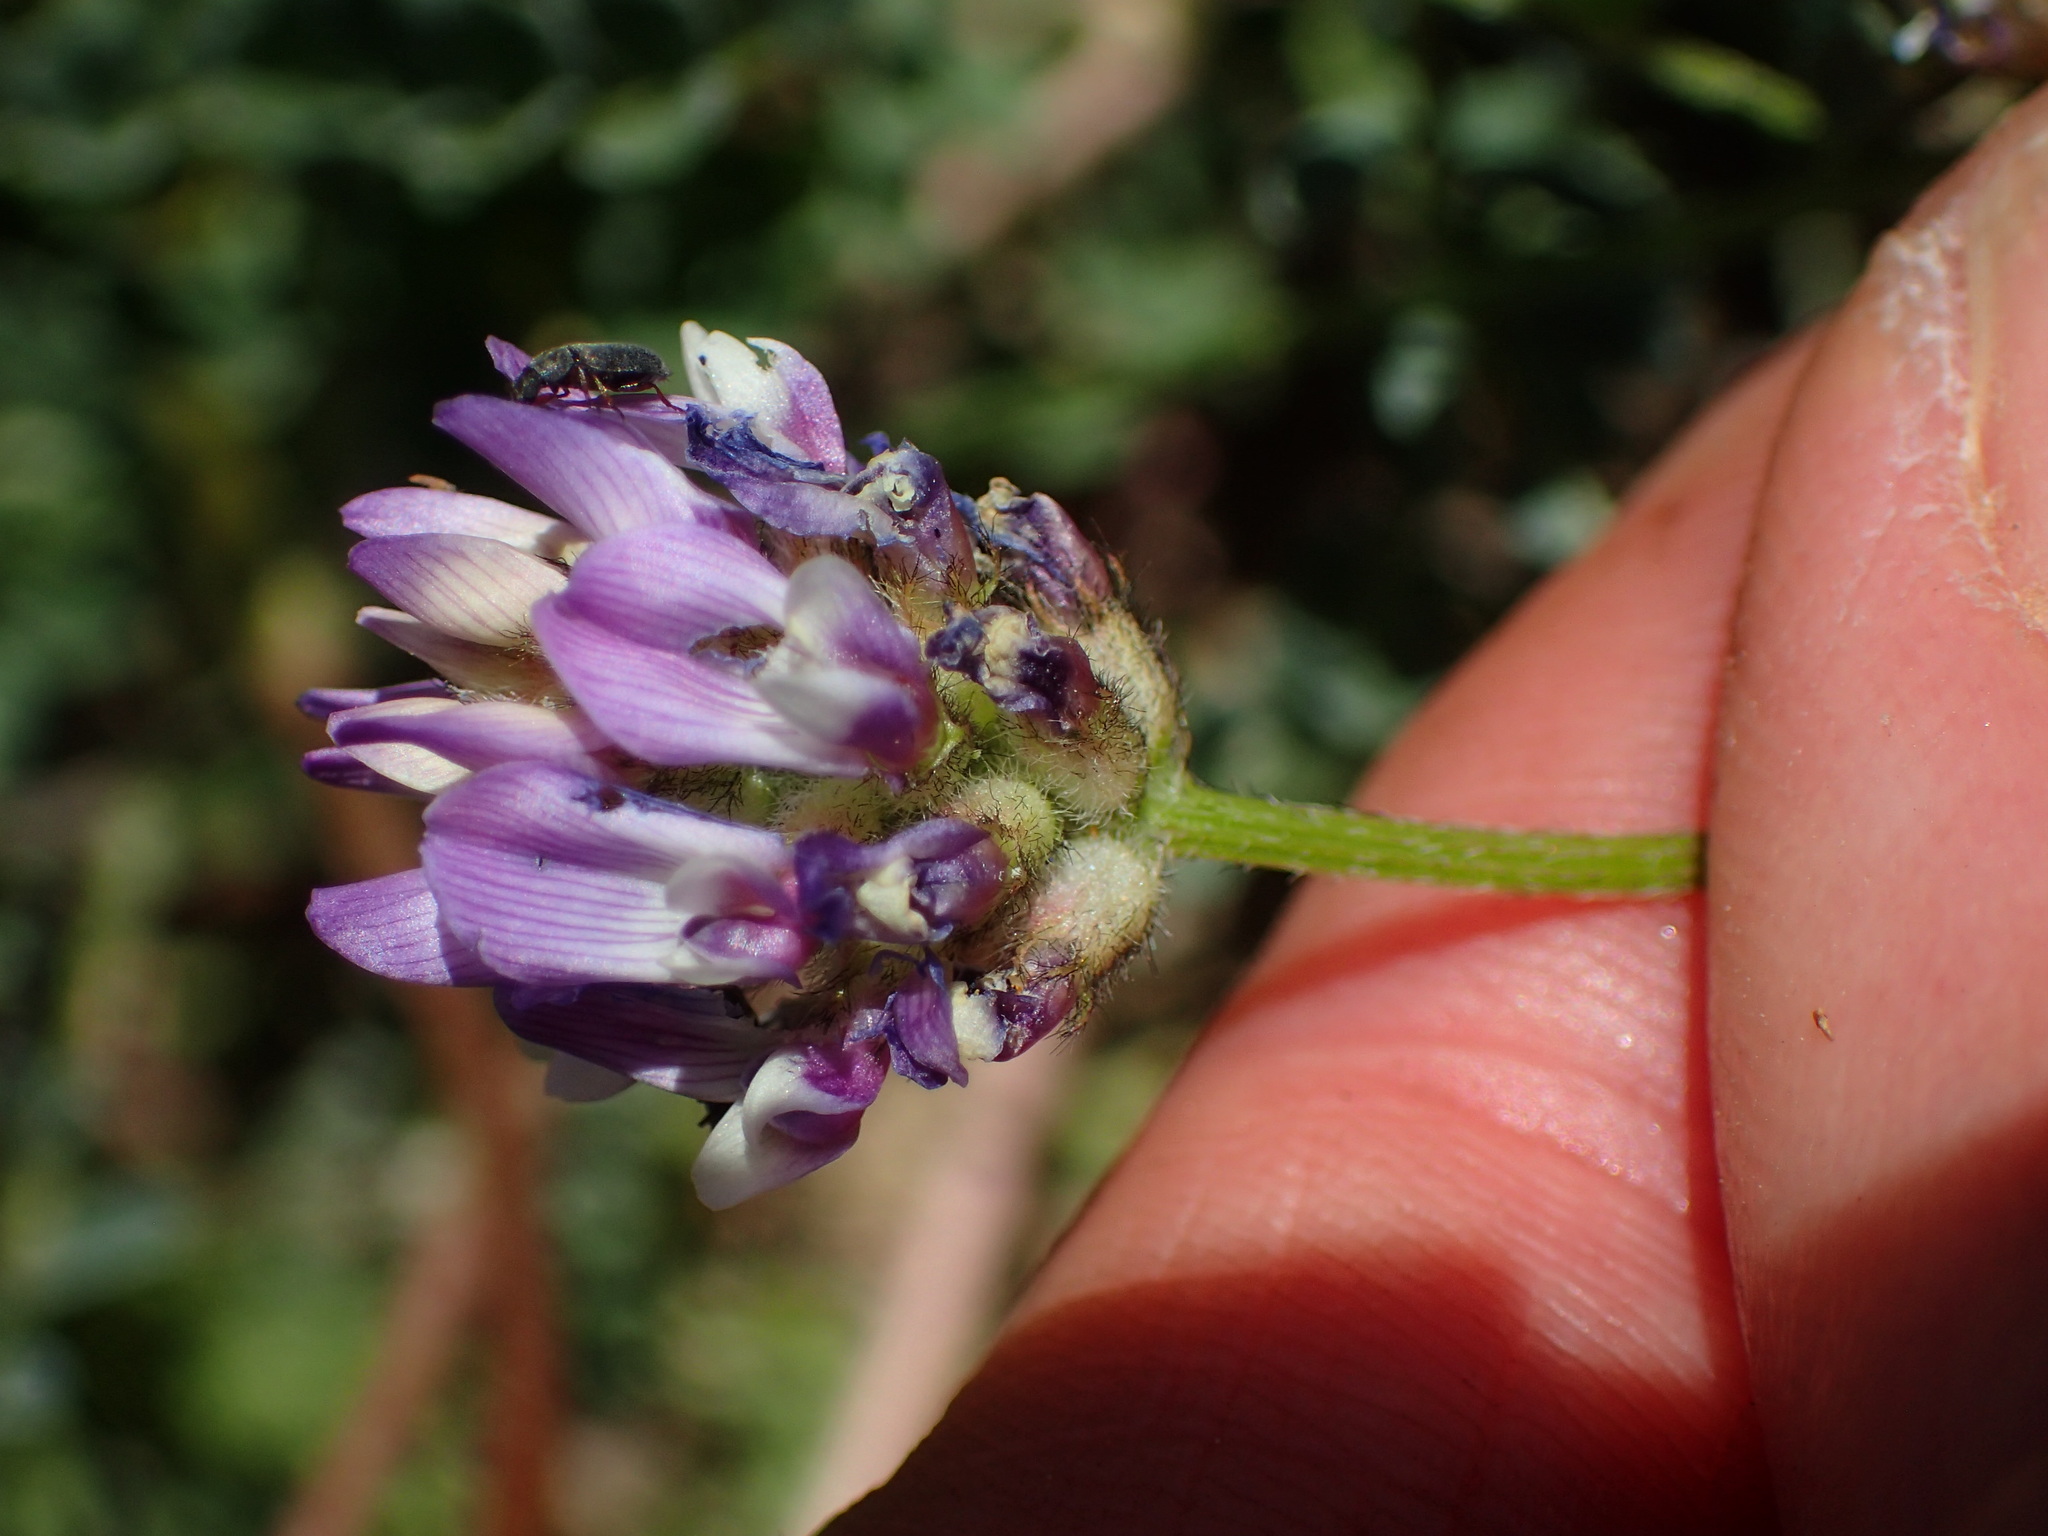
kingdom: Plantae
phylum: Tracheophyta
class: Magnoliopsida
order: Fabales
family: Fabaceae
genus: Astragalus
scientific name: Astragalus didymocarpus
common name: Dwarf white milkvetch
